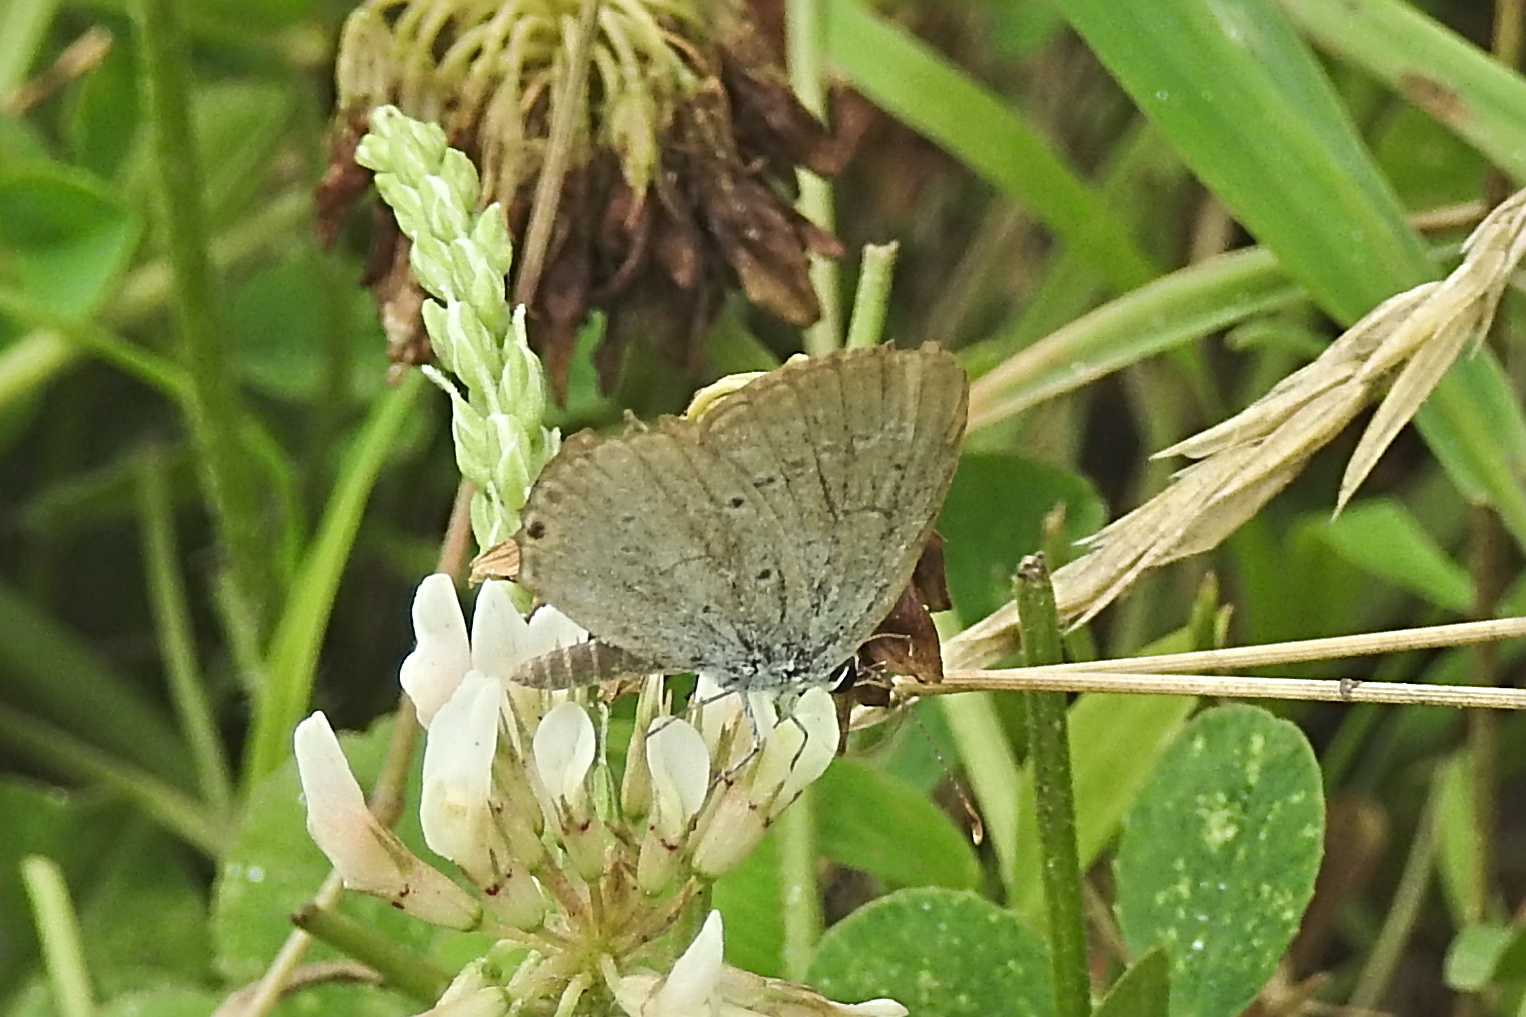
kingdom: Animalia
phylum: Arthropoda
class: Insecta
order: Lepidoptera
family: Lycaenidae
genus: Elkalyce
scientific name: Elkalyce comyntas
